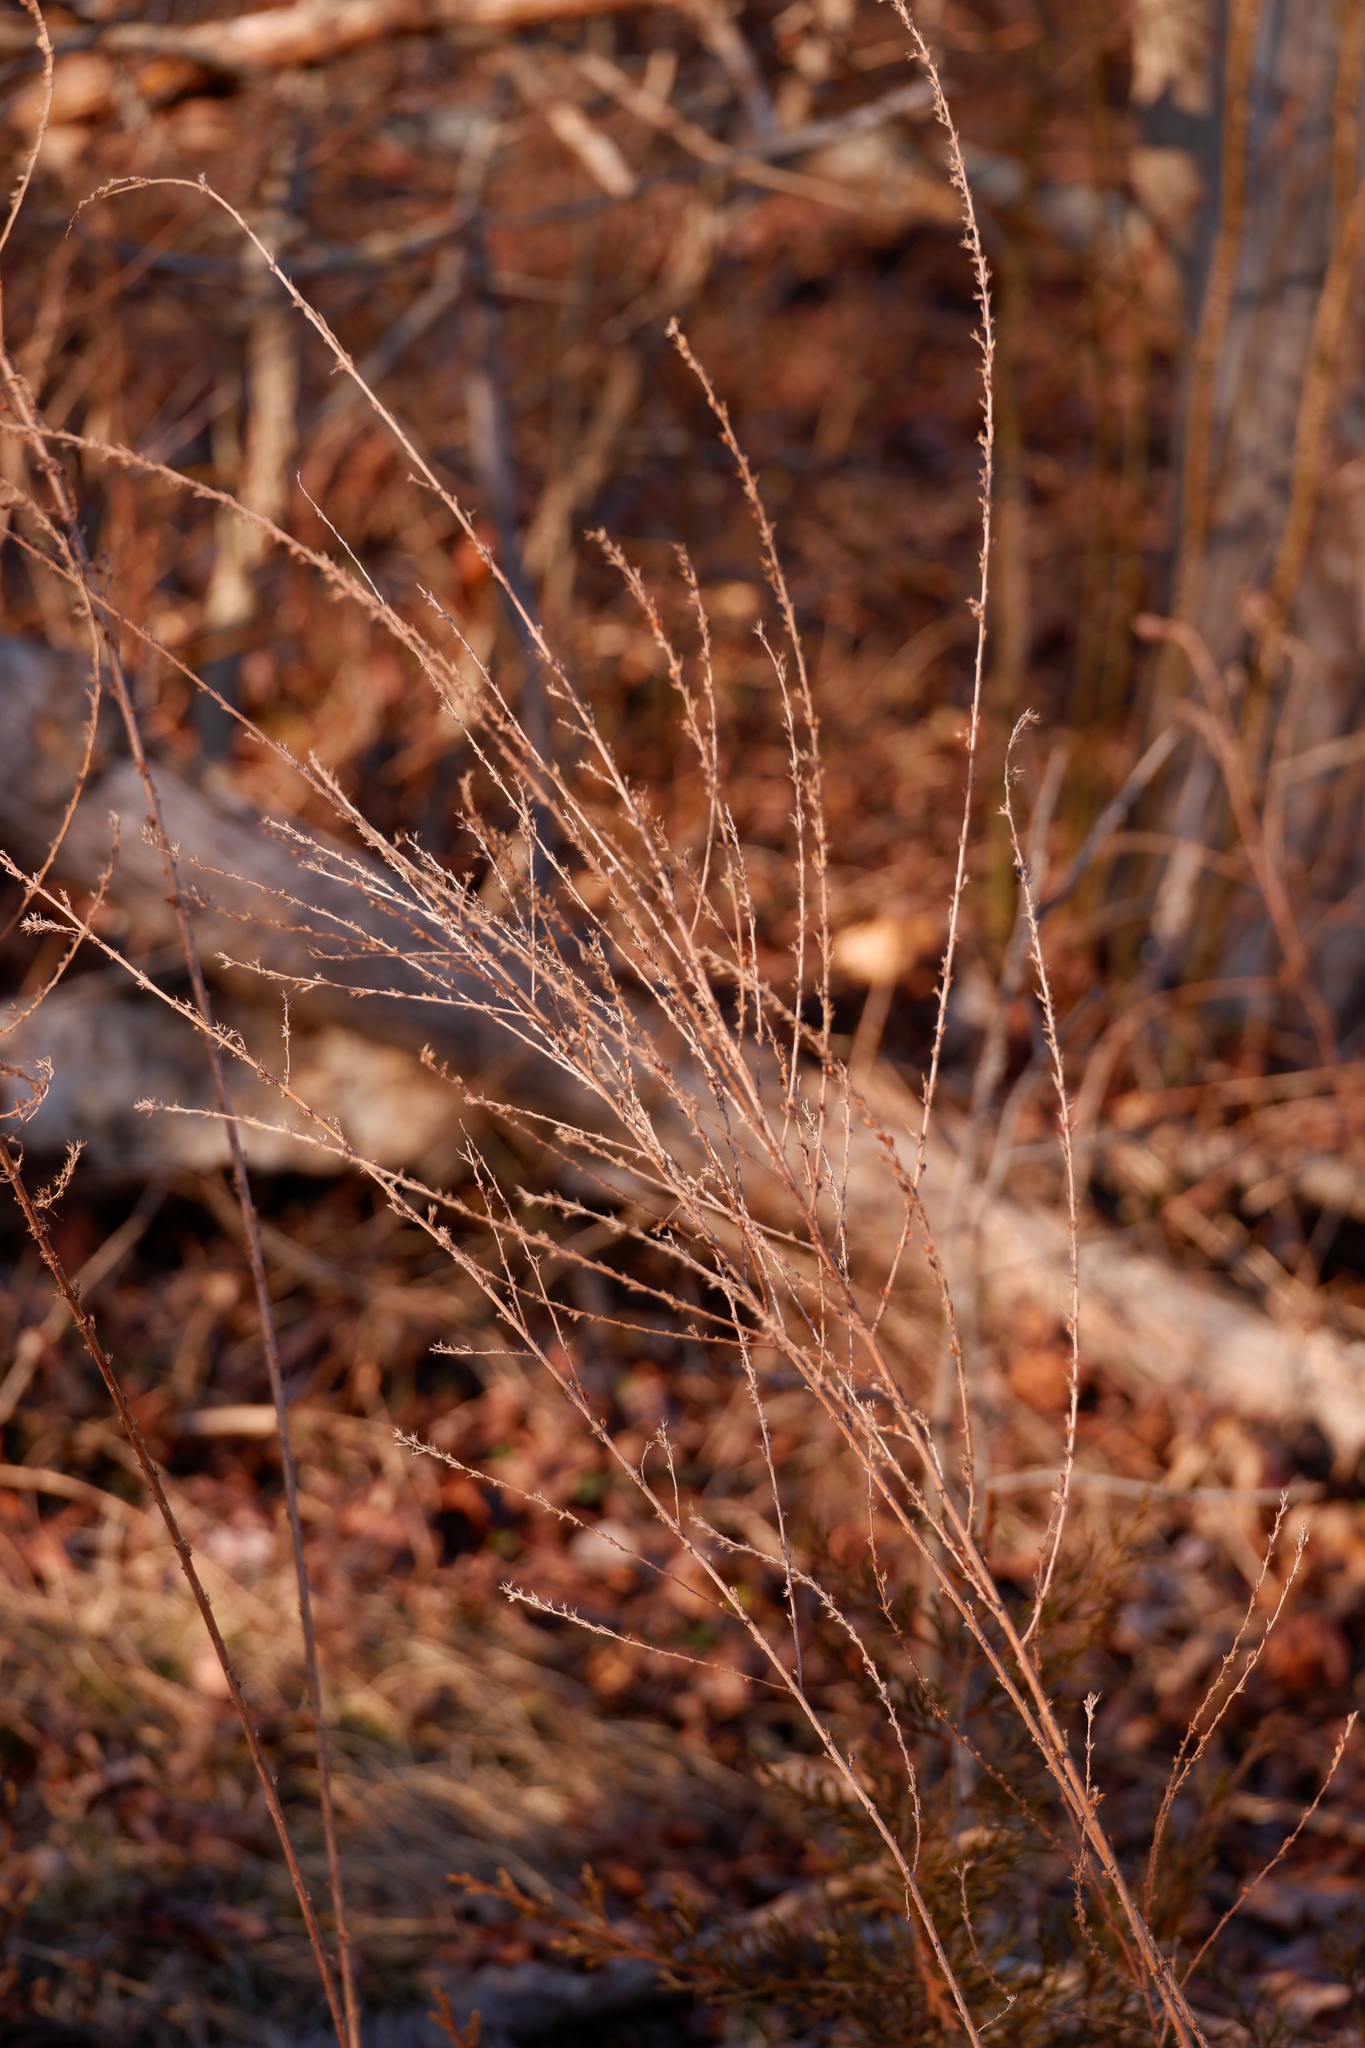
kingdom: Plantae
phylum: Tracheophyta
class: Magnoliopsida
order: Fabales
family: Fabaceae
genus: Lespedeza
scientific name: Lespedeza cuneata
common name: Chinese bush-clover
